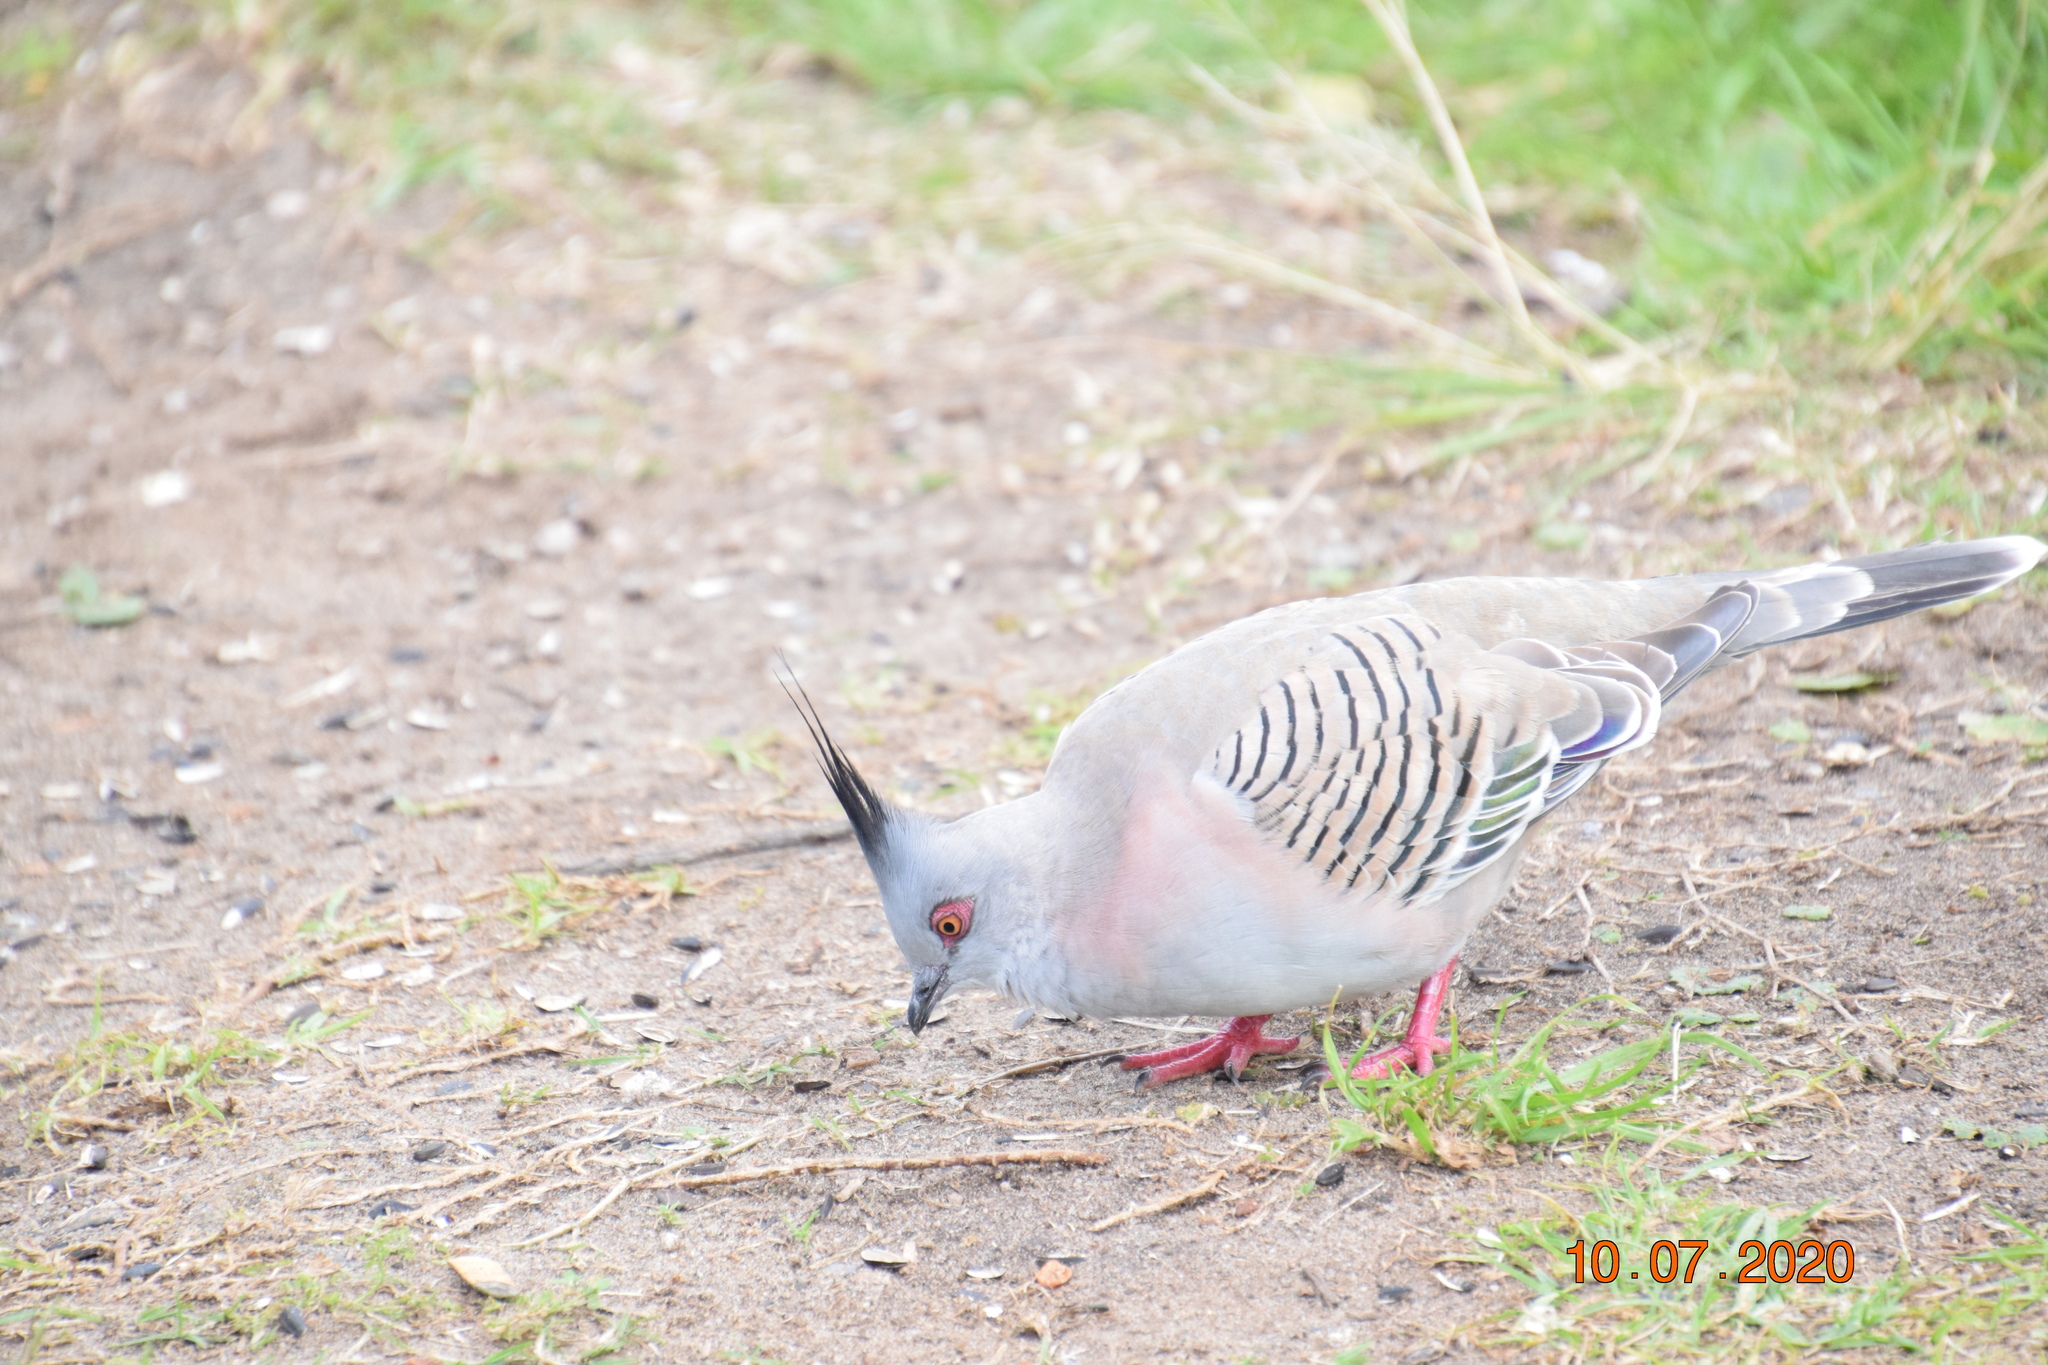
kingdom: Animalia
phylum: Chordata
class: Aves
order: Columbiformes
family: Columbidae
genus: Ocyphaps
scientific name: Ocyphaps lophotes
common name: Crested pigeon
